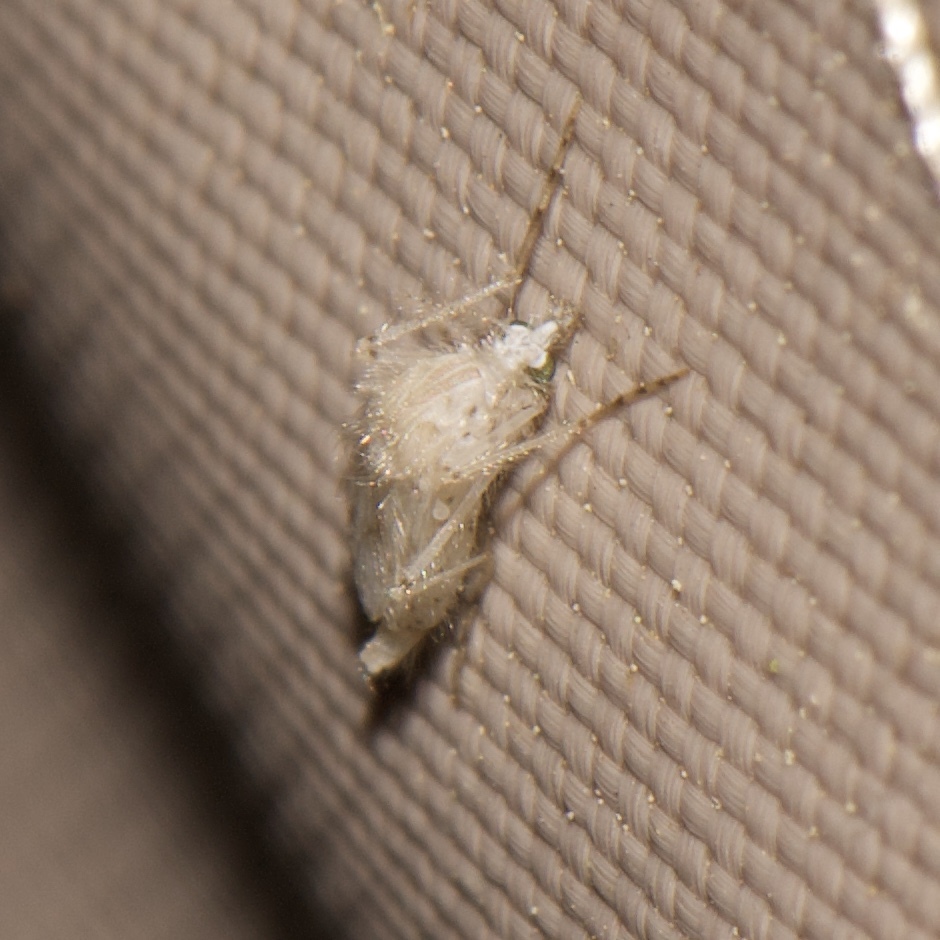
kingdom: Animalia
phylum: Arthropoda
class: Insecta
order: Diptera
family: Chaoboridae
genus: Chaoborus
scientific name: Chaoborus albatus
